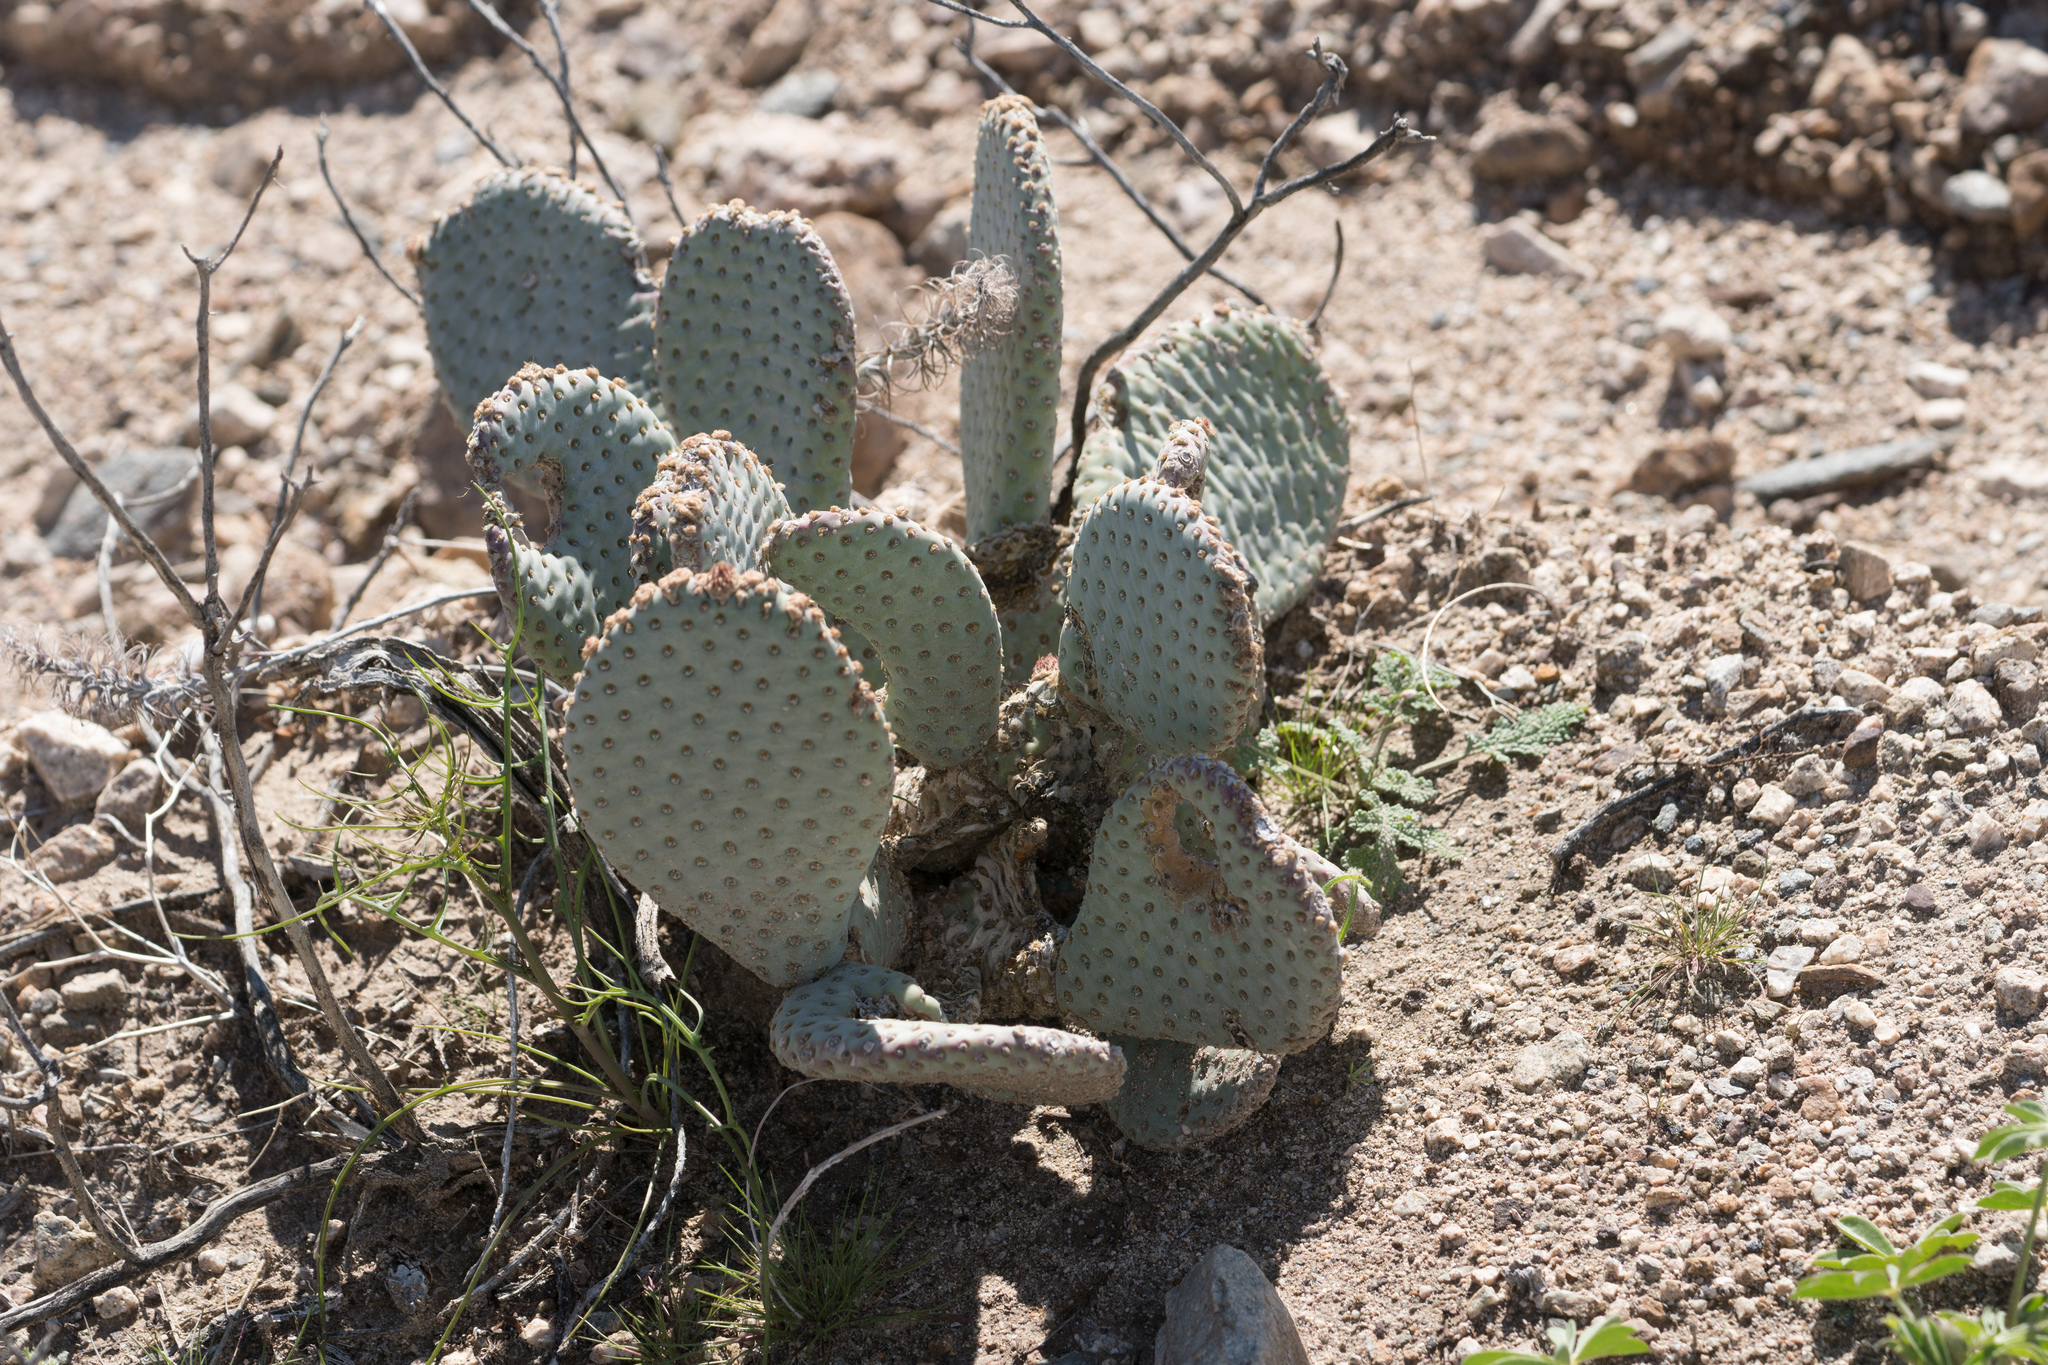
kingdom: Plantae
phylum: Tracheophyta
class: Magnoliopsida
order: Caryophyllales
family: Cactaceae
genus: Opuntia
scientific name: Opuntia basilaris
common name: Beavertail prickly-pear
